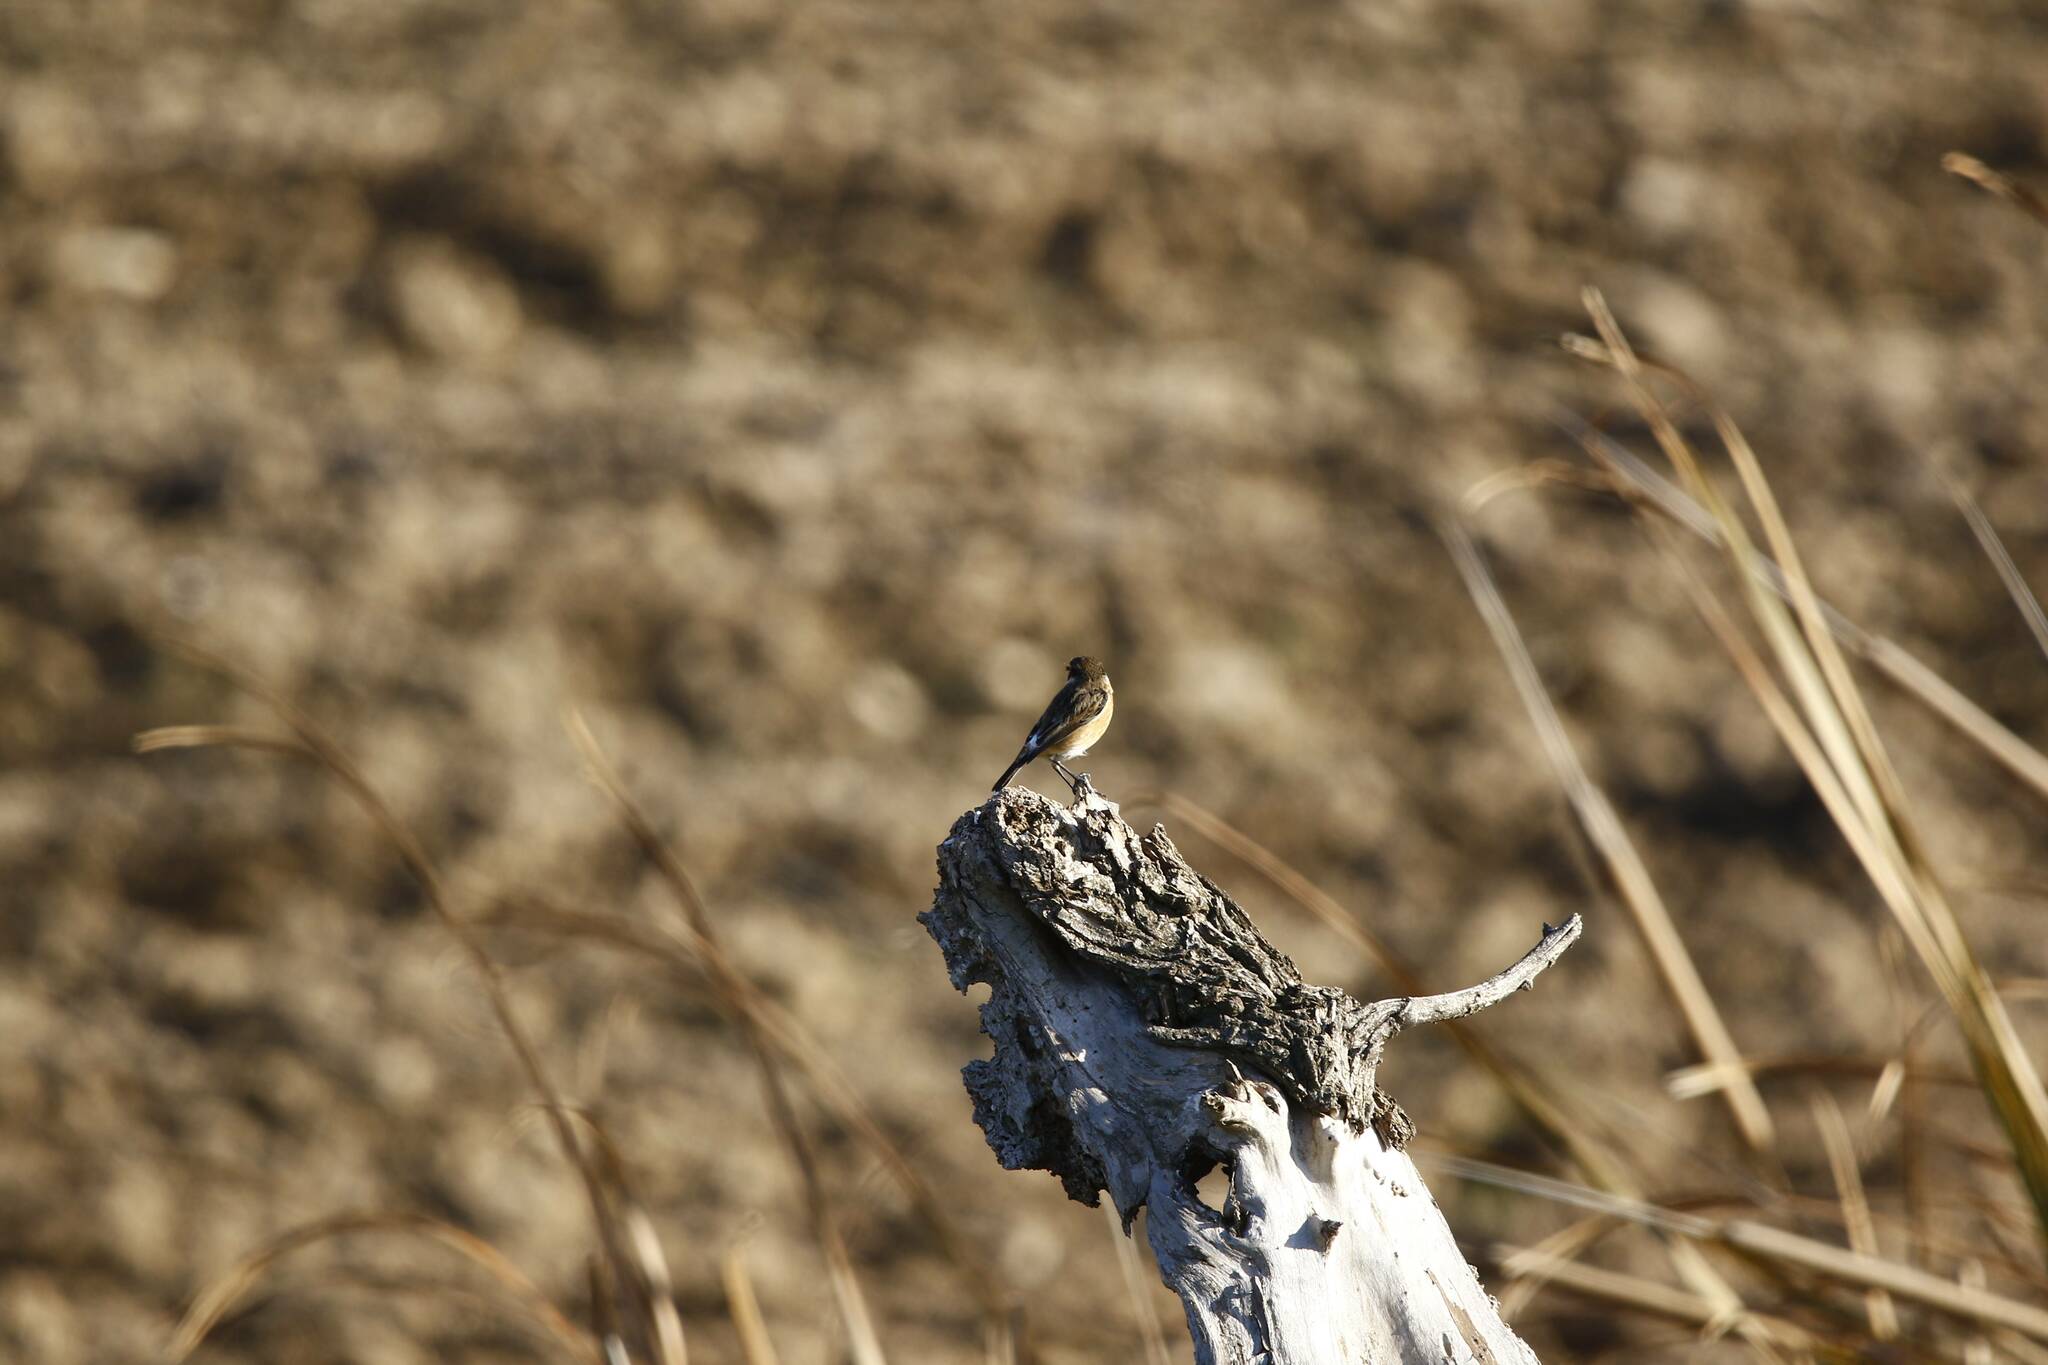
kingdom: Animalia
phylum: Chordata
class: Aves
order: Passeriformes
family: Muscicapidae
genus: Saxicola
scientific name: Saxicola rubicola
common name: European stonechat
